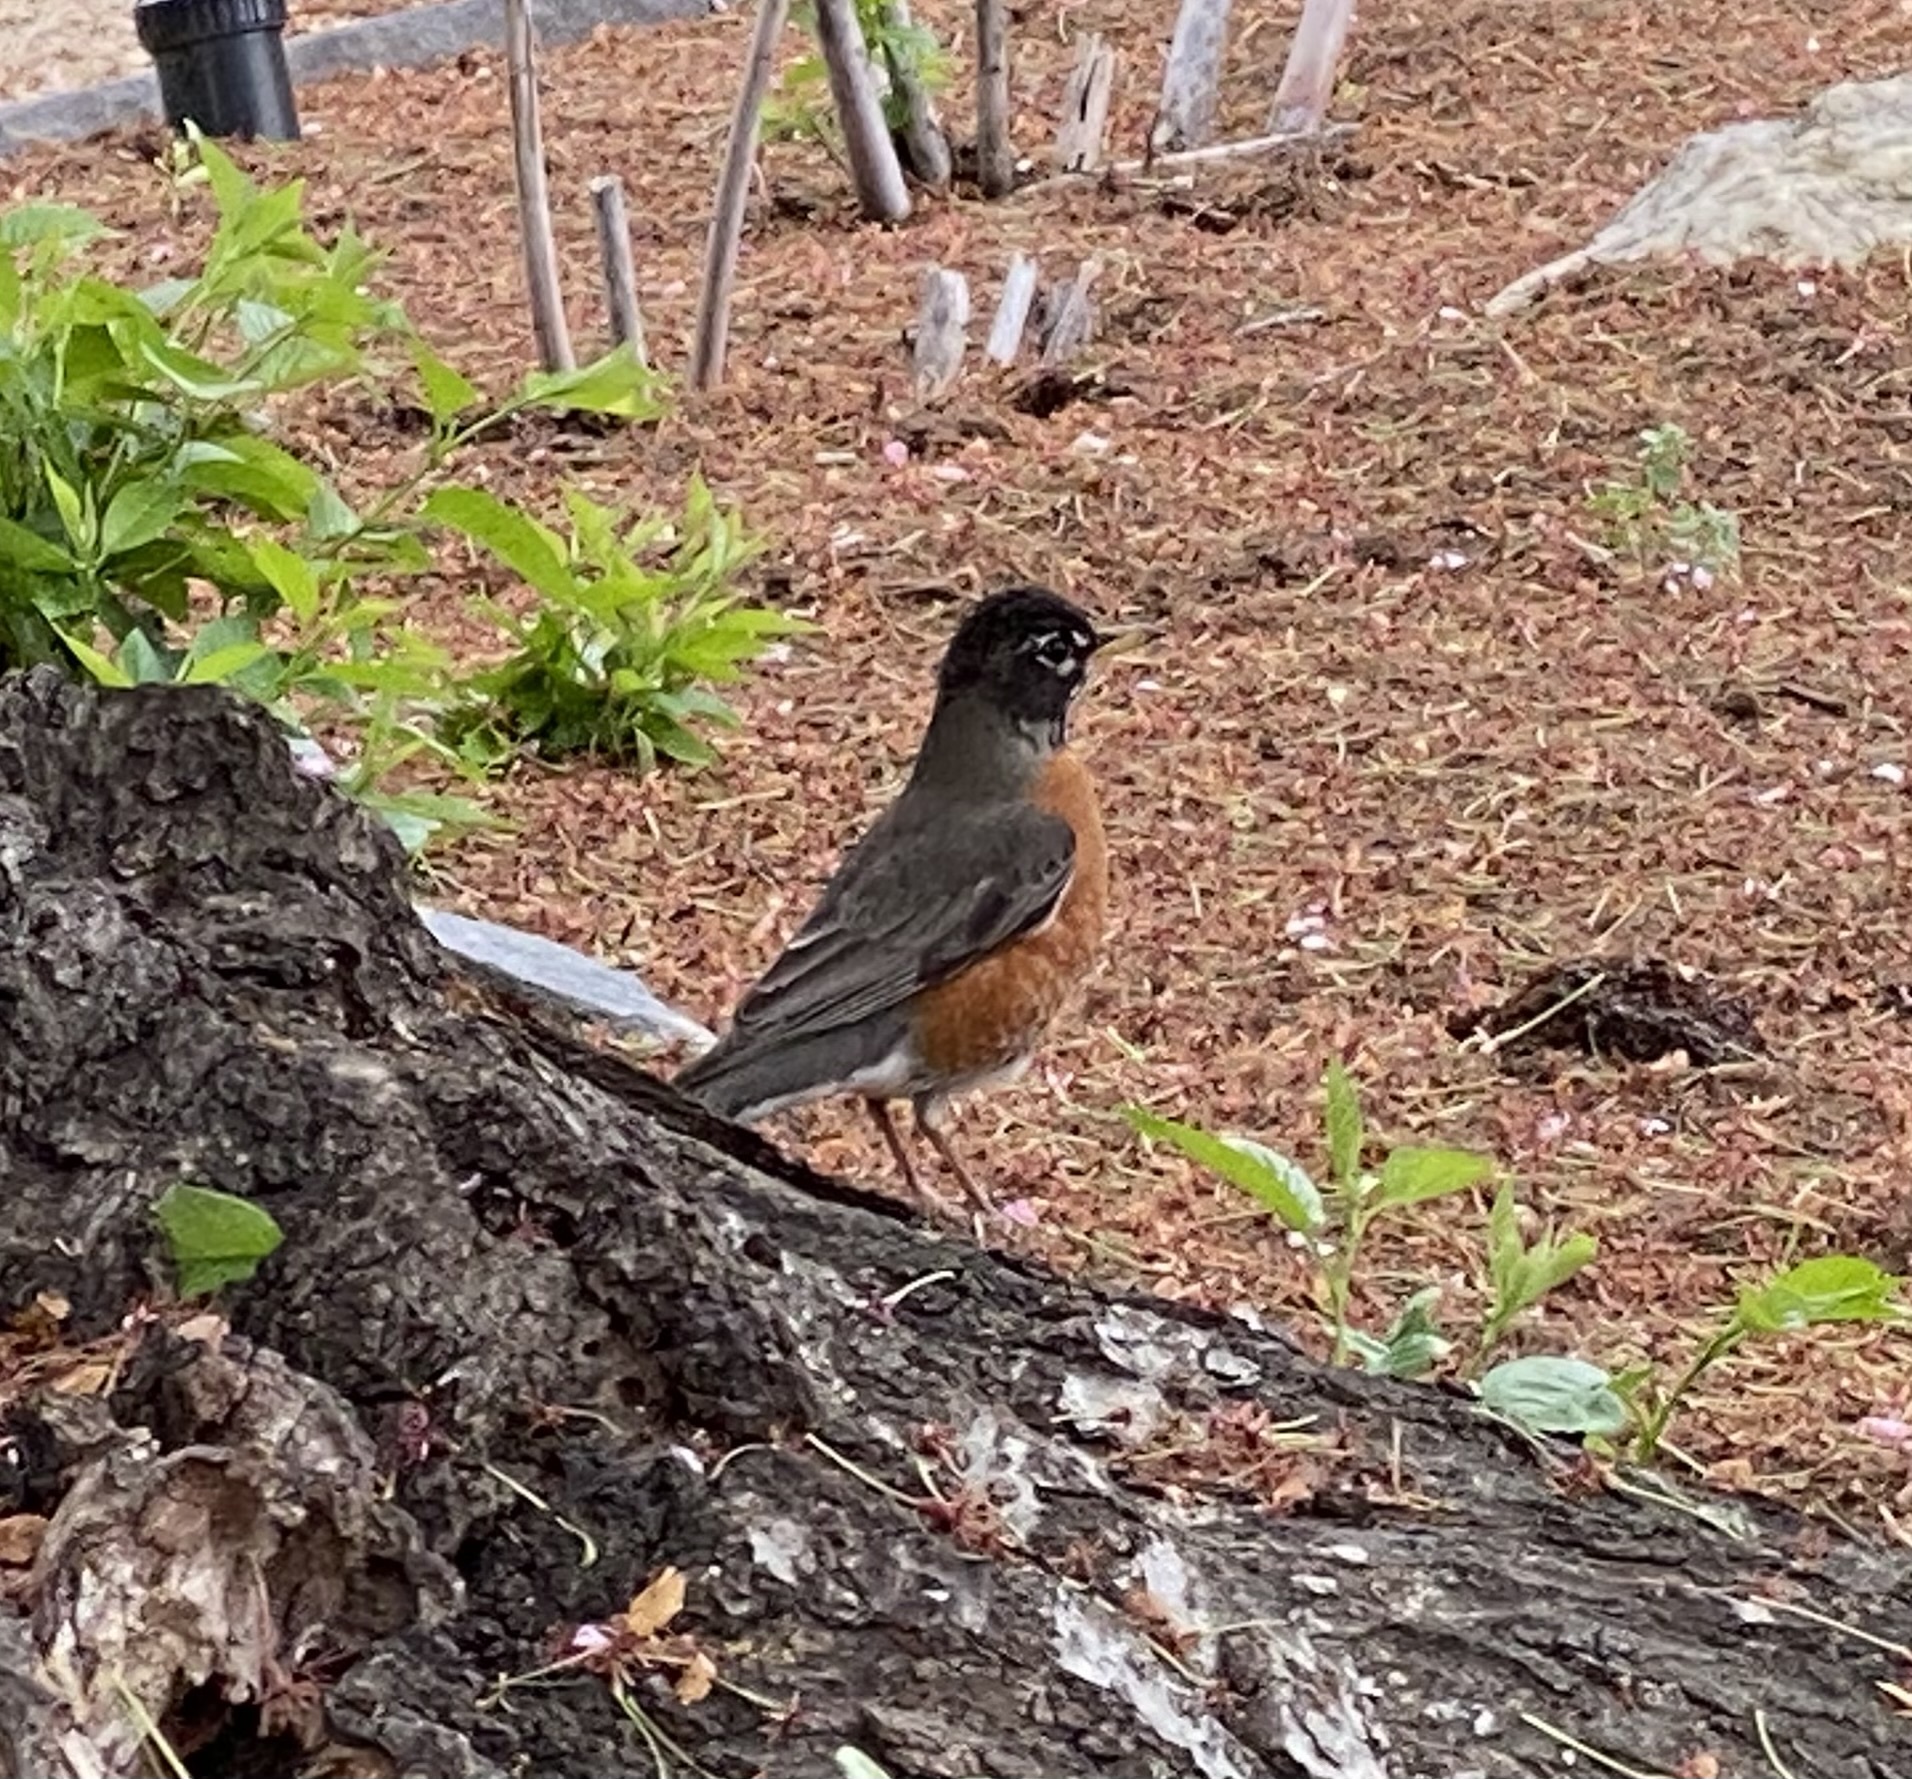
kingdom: Animalia
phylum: Chordata
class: Aves
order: Passeriformes
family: Turdidae
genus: Turdus
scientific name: Turdus migratorius
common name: American robin
